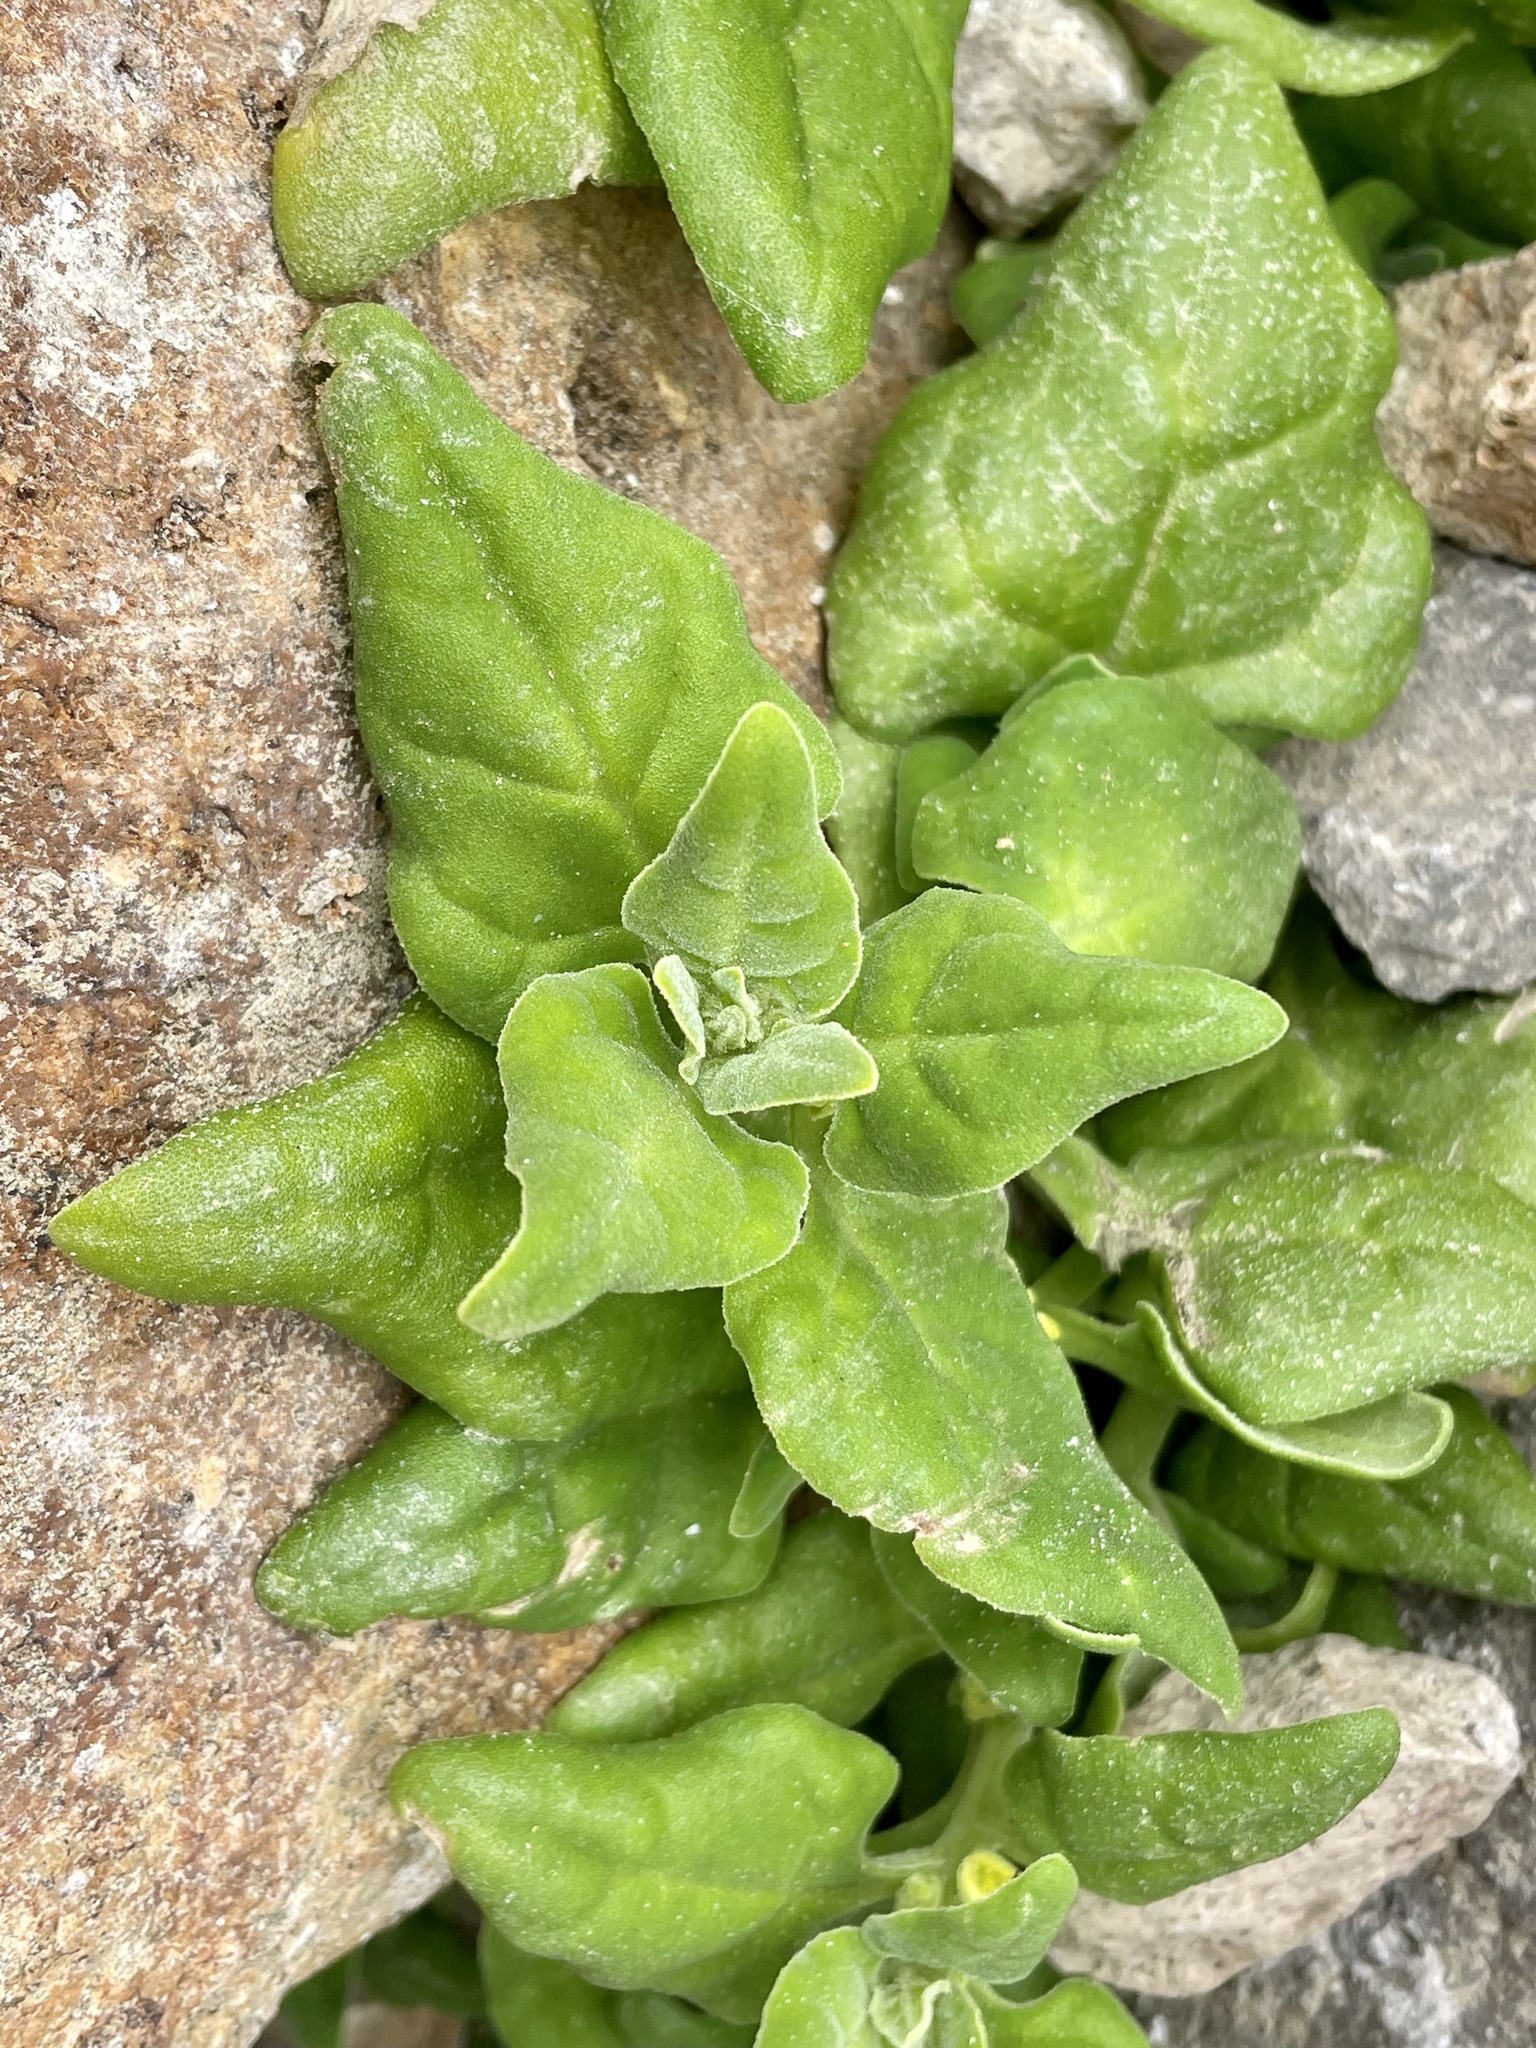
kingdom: Plantae
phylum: Tracheophyta
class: Magnoliopsida
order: Caryophyllales
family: Aizoaceae
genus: Tetragonia
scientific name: Tetragonia tetragonoides
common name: New zealand-spinach
